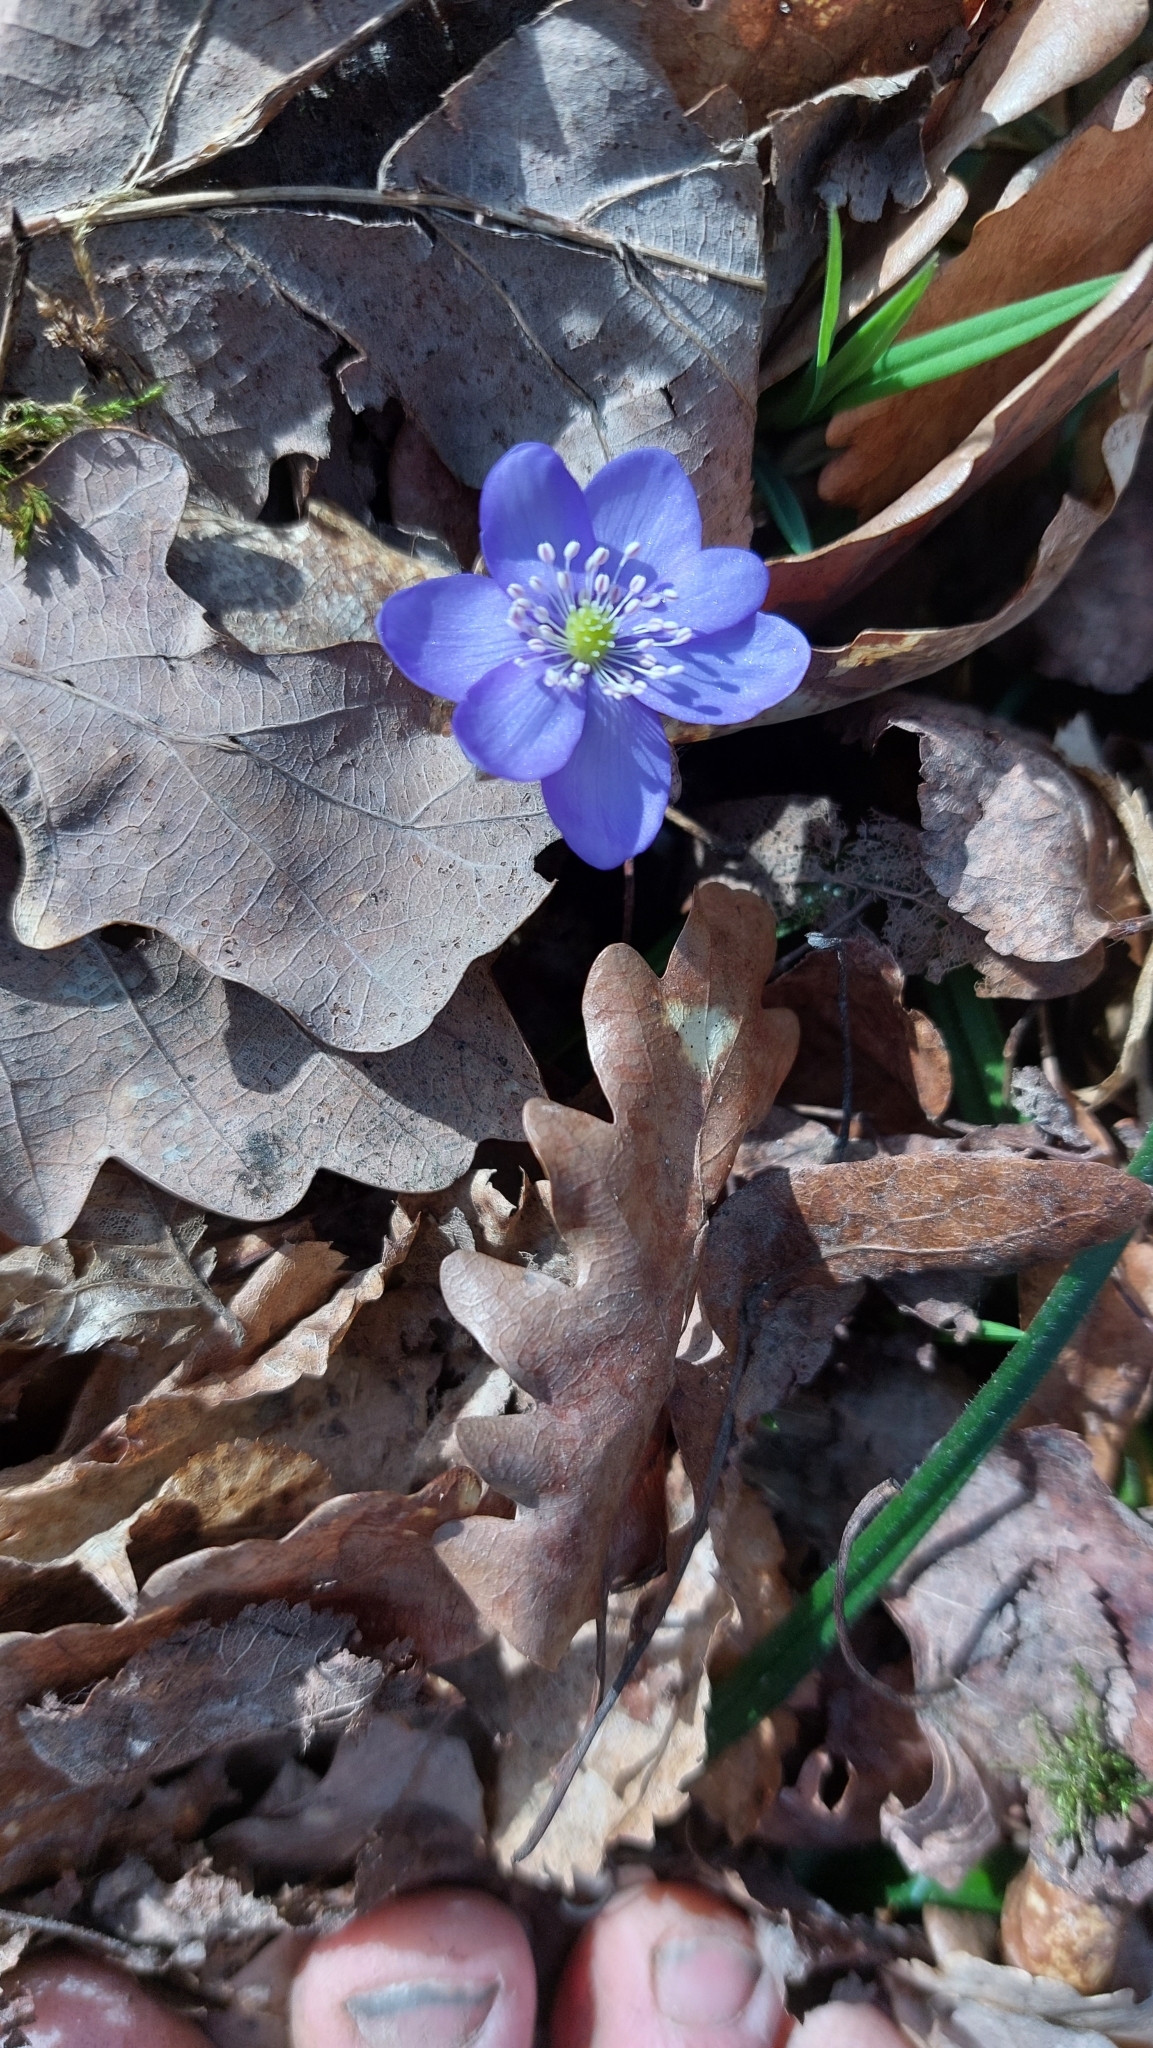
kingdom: Plantae
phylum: Tracheophyta
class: Magnoliopsida
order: Ranunculales
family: Ranunculaceae
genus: Hepatica
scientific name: Hepatica nobilis
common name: Liverleaf
